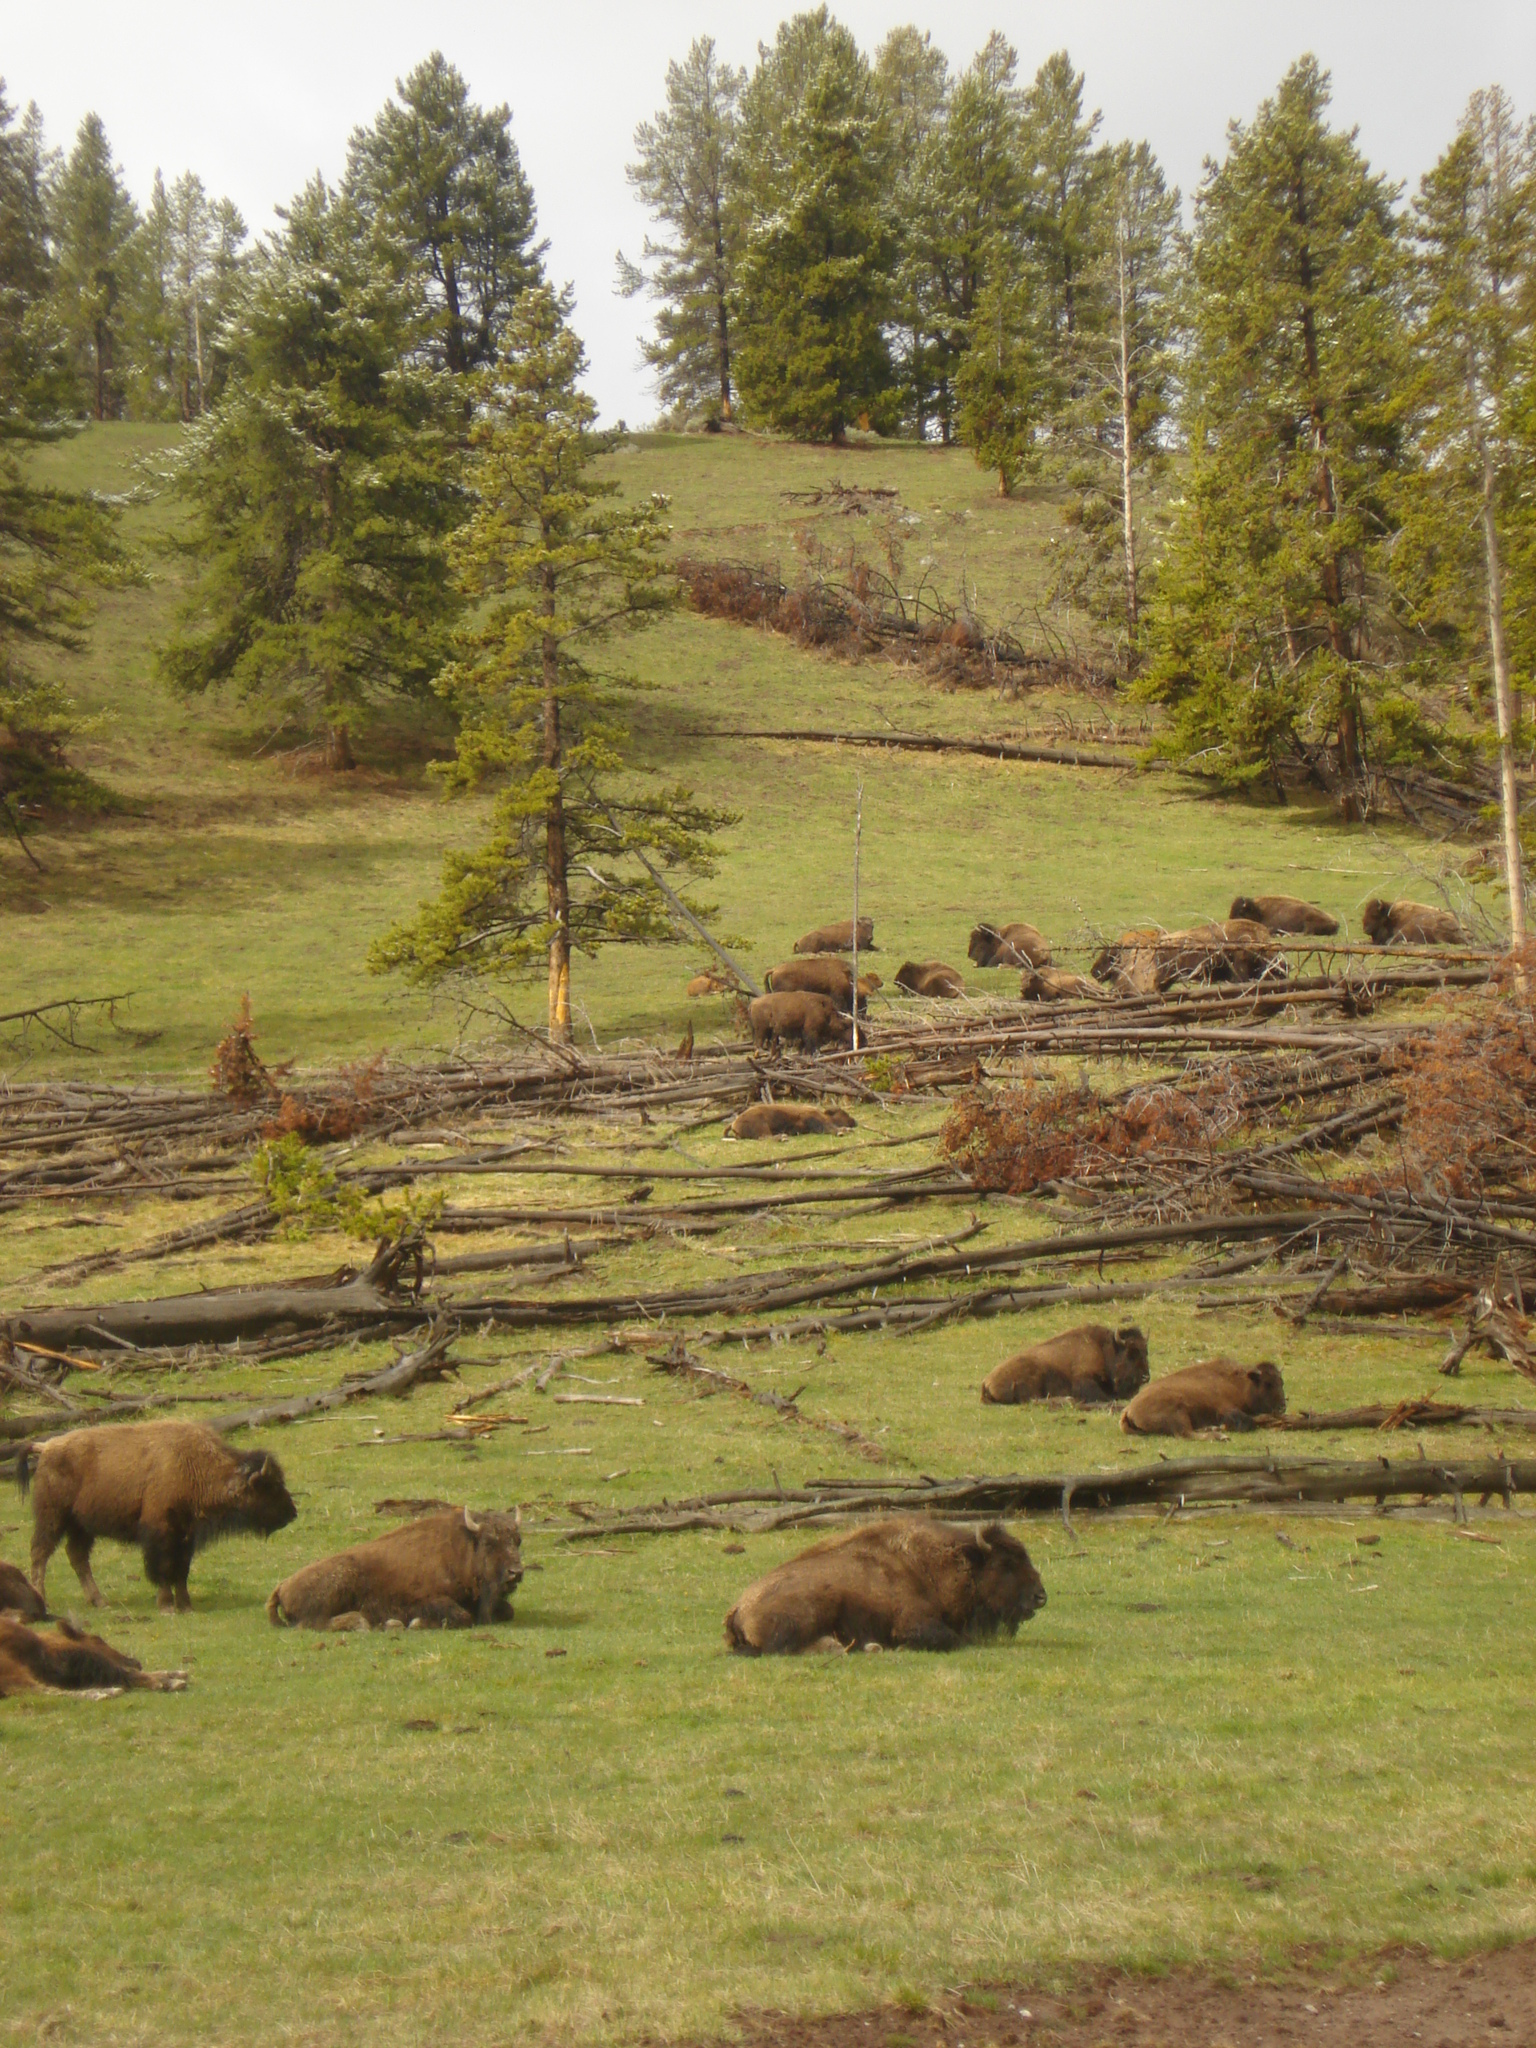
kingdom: Animalia
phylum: Chordata
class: Mammalia
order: Artiodactyla
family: Bovidae
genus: Bison
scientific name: Bison bison
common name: American bison
